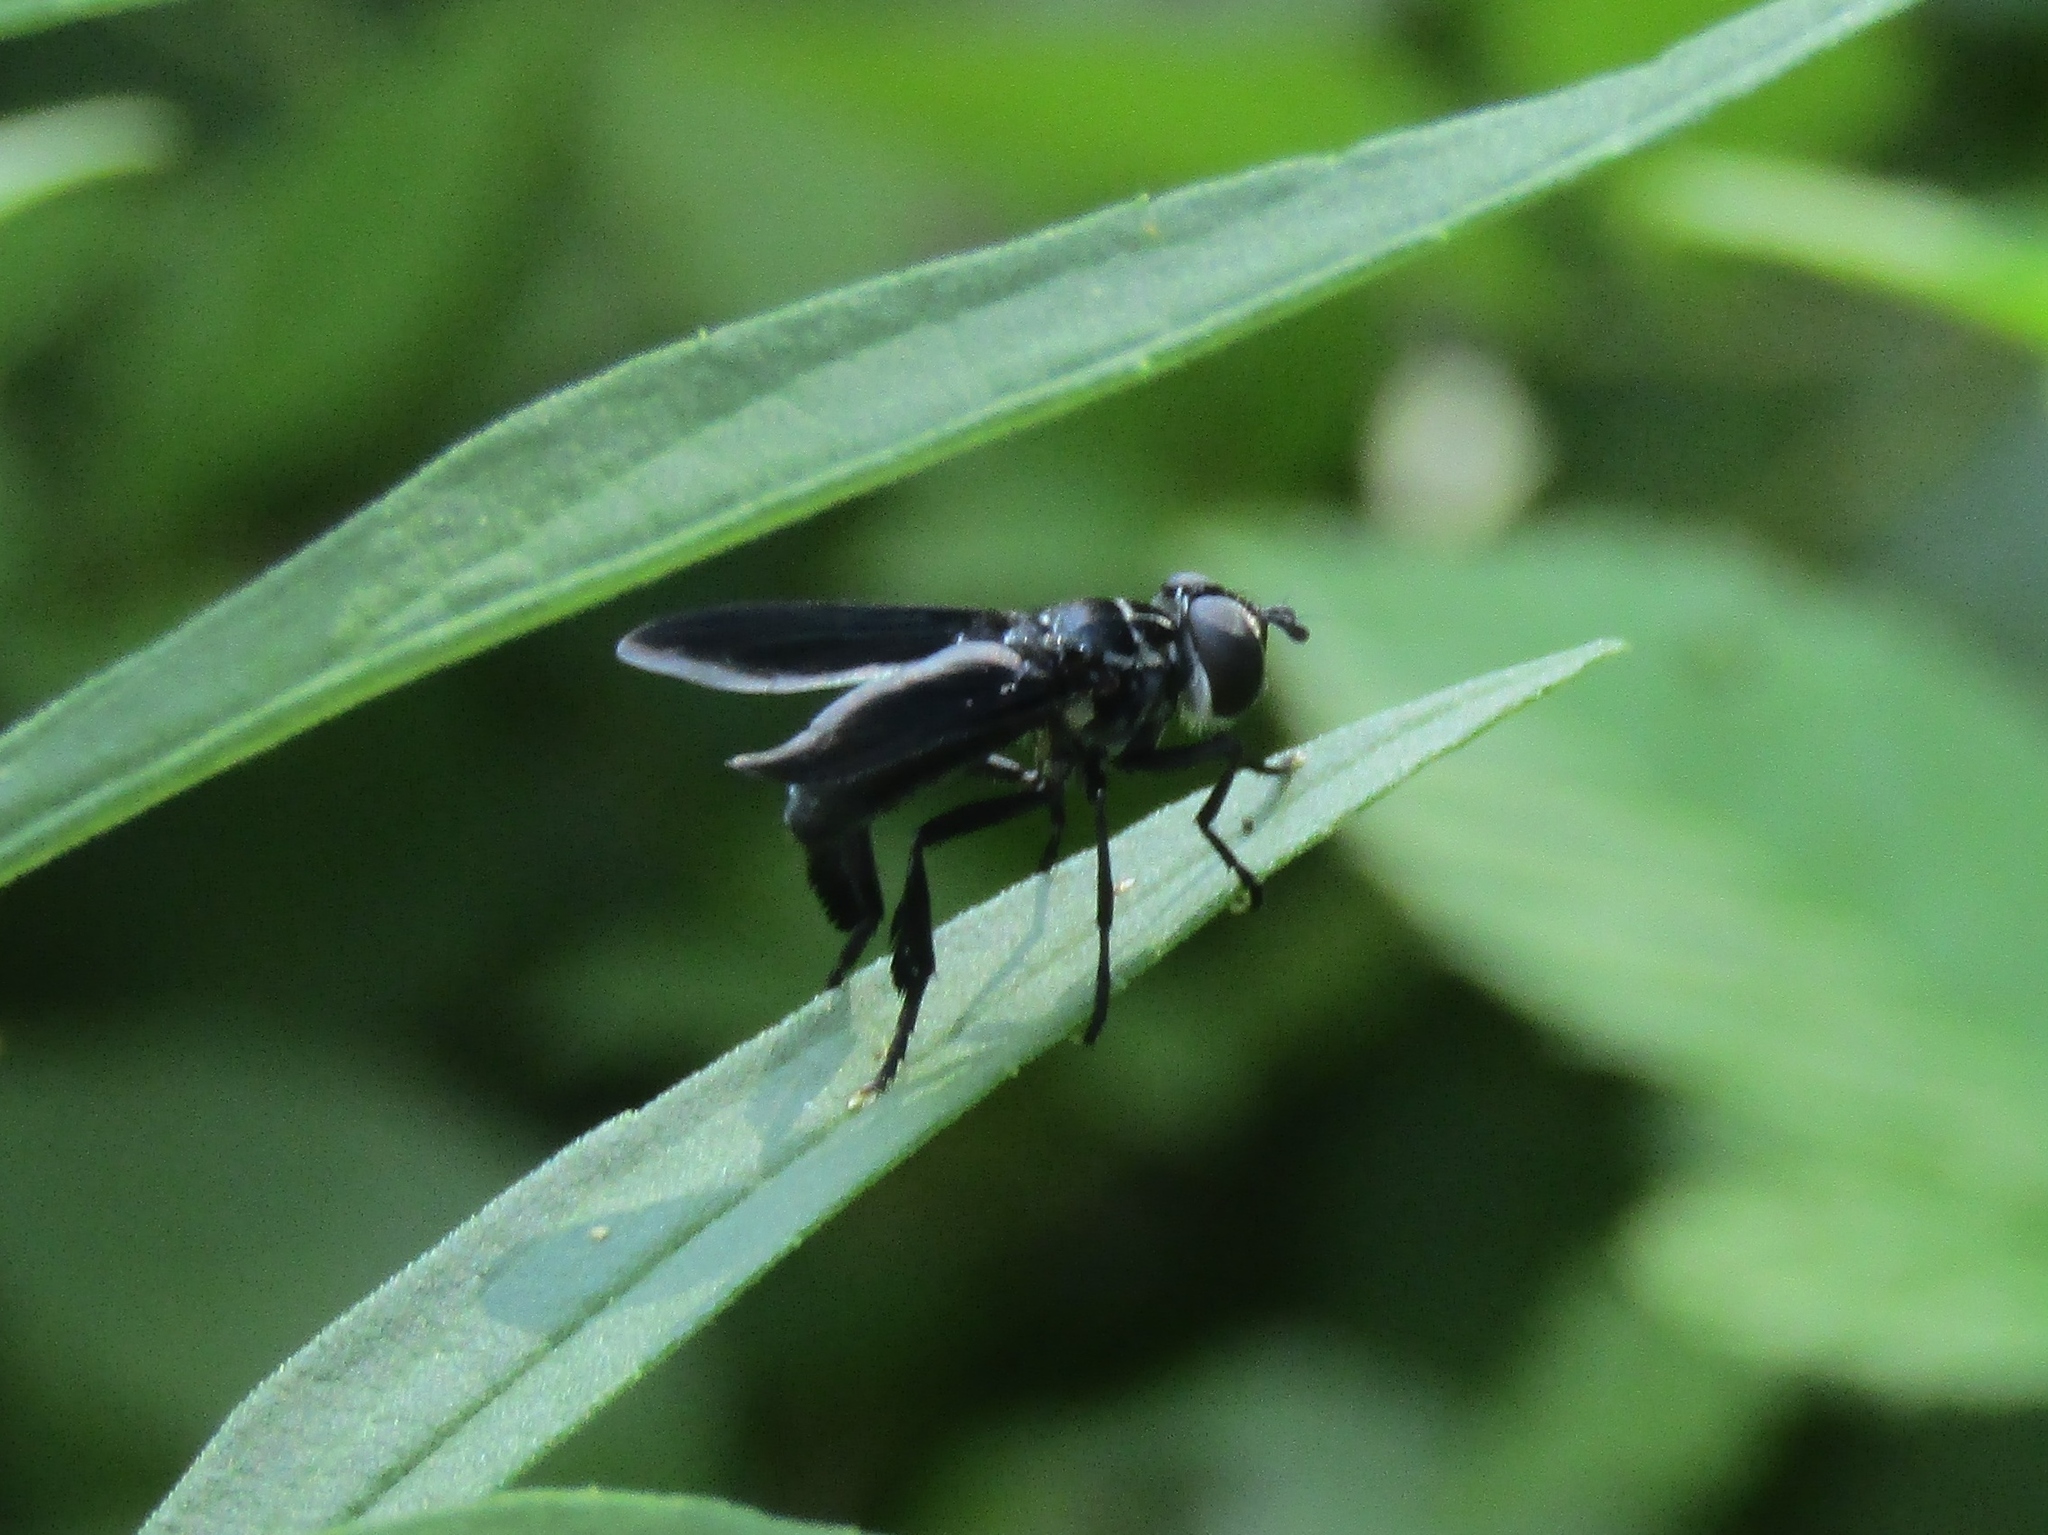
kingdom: Animalia
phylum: Arthropoda
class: Insecta
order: Diptera
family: Tachinidae
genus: Trichopoda
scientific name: Trichopoda lanipes
